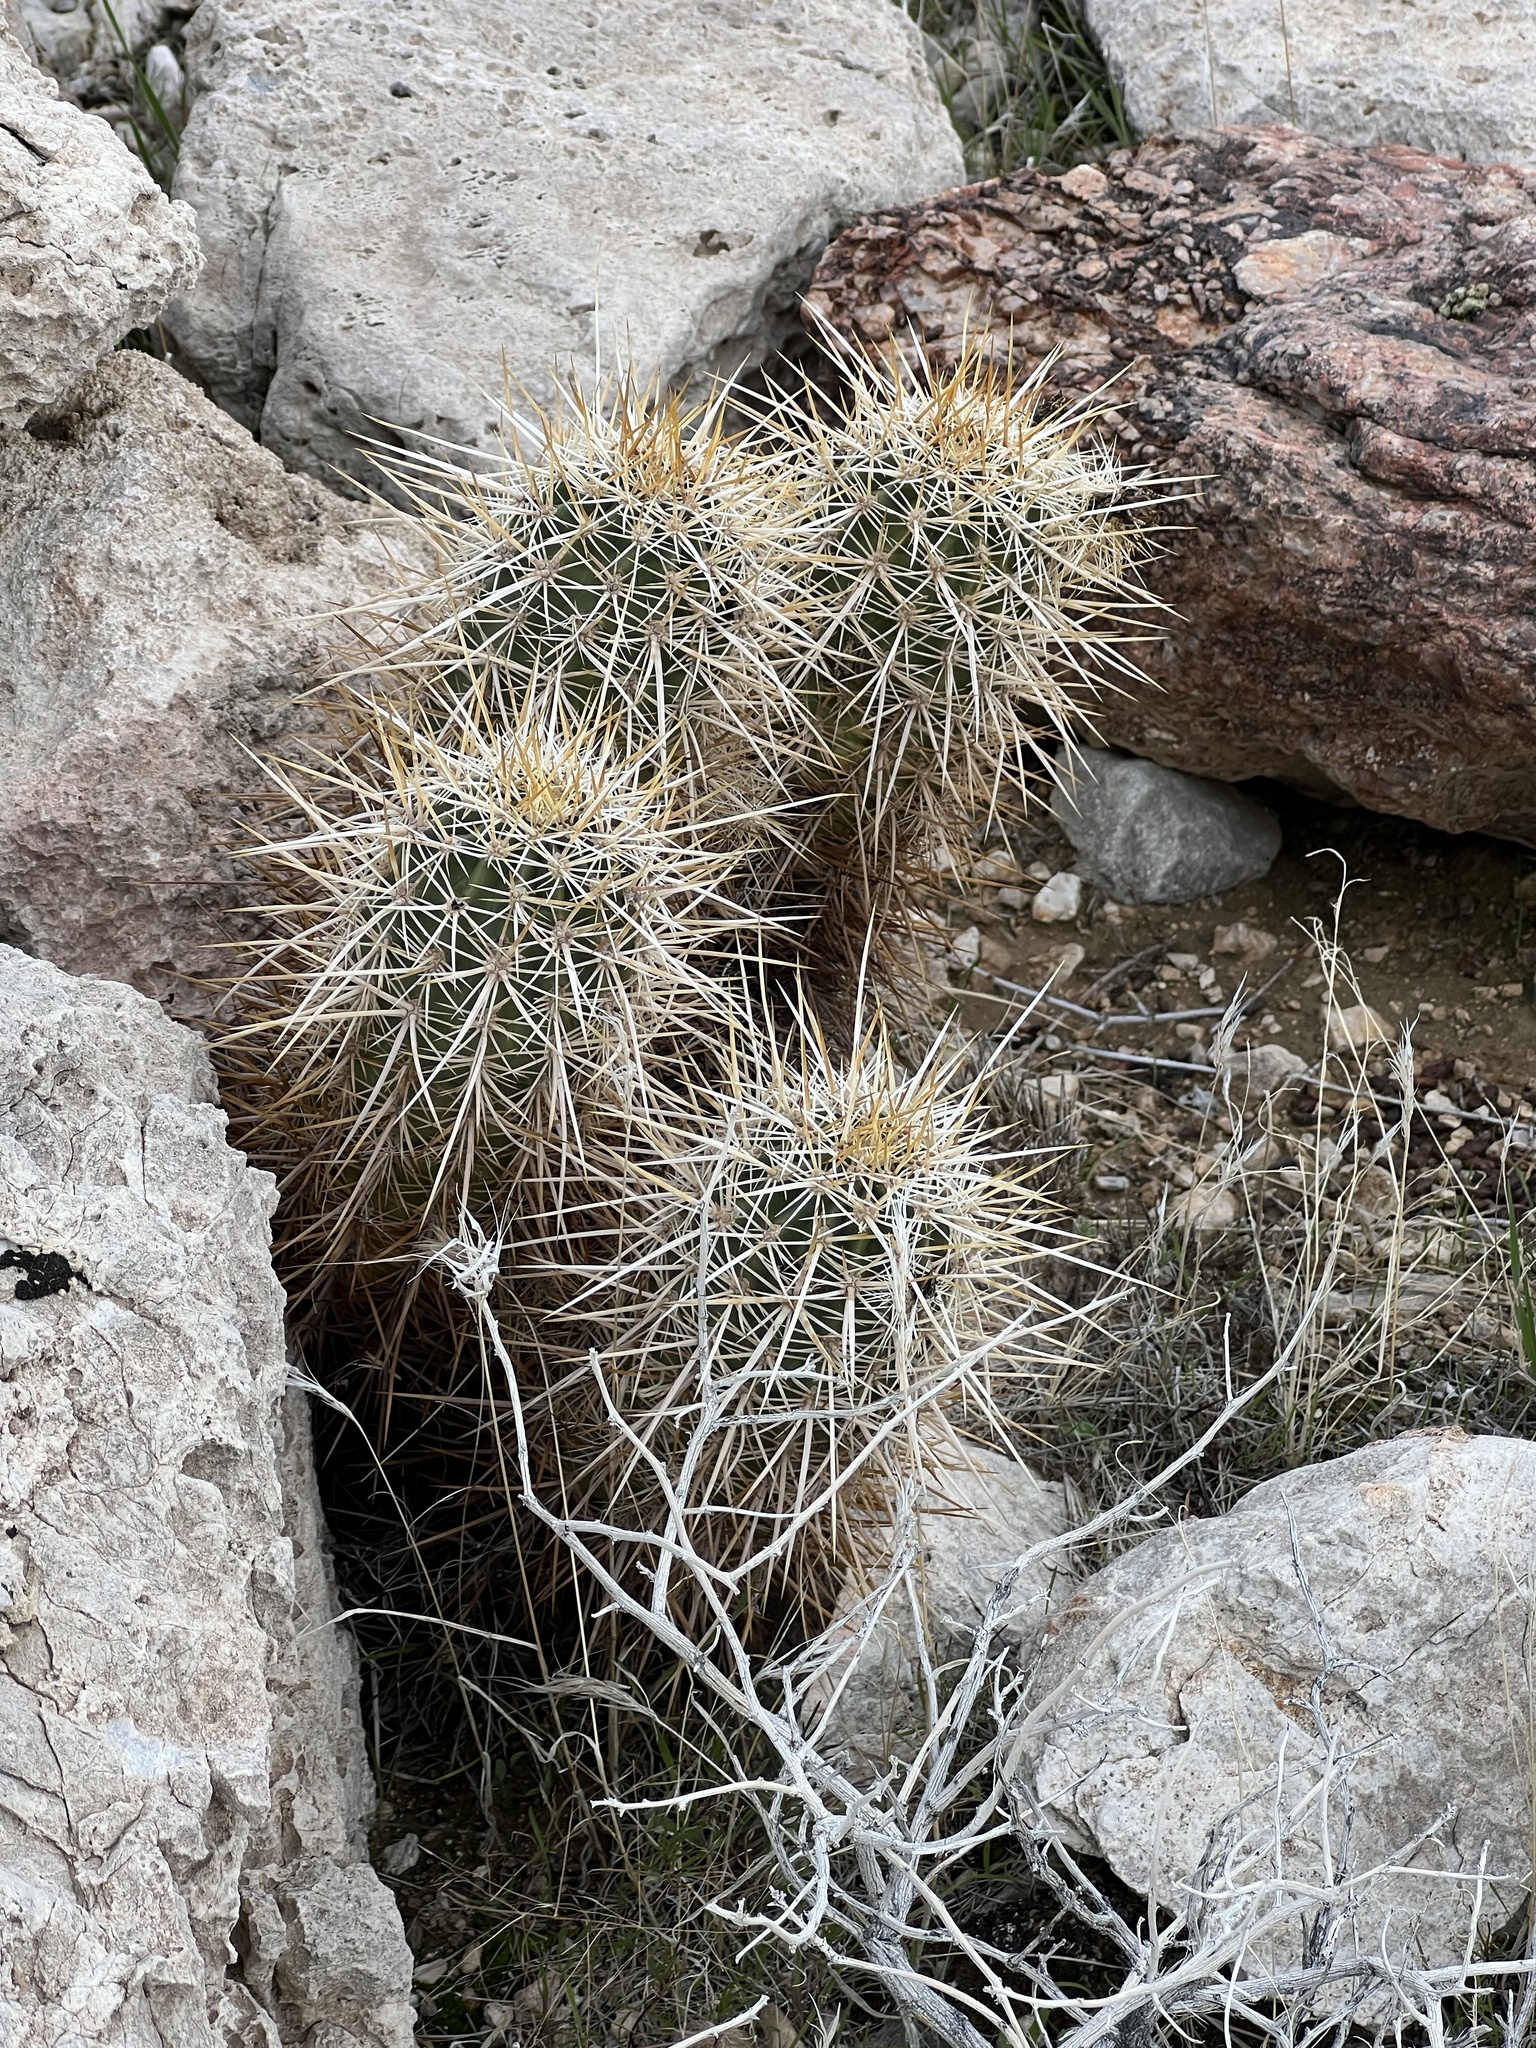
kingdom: Plantae
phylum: Tracheophyta
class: Magnoliopsida
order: Caryophyllales
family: Cactaceae
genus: Echinocereus
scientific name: Echinocereus engelmannii
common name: Engelmann's hedgehog cactus
